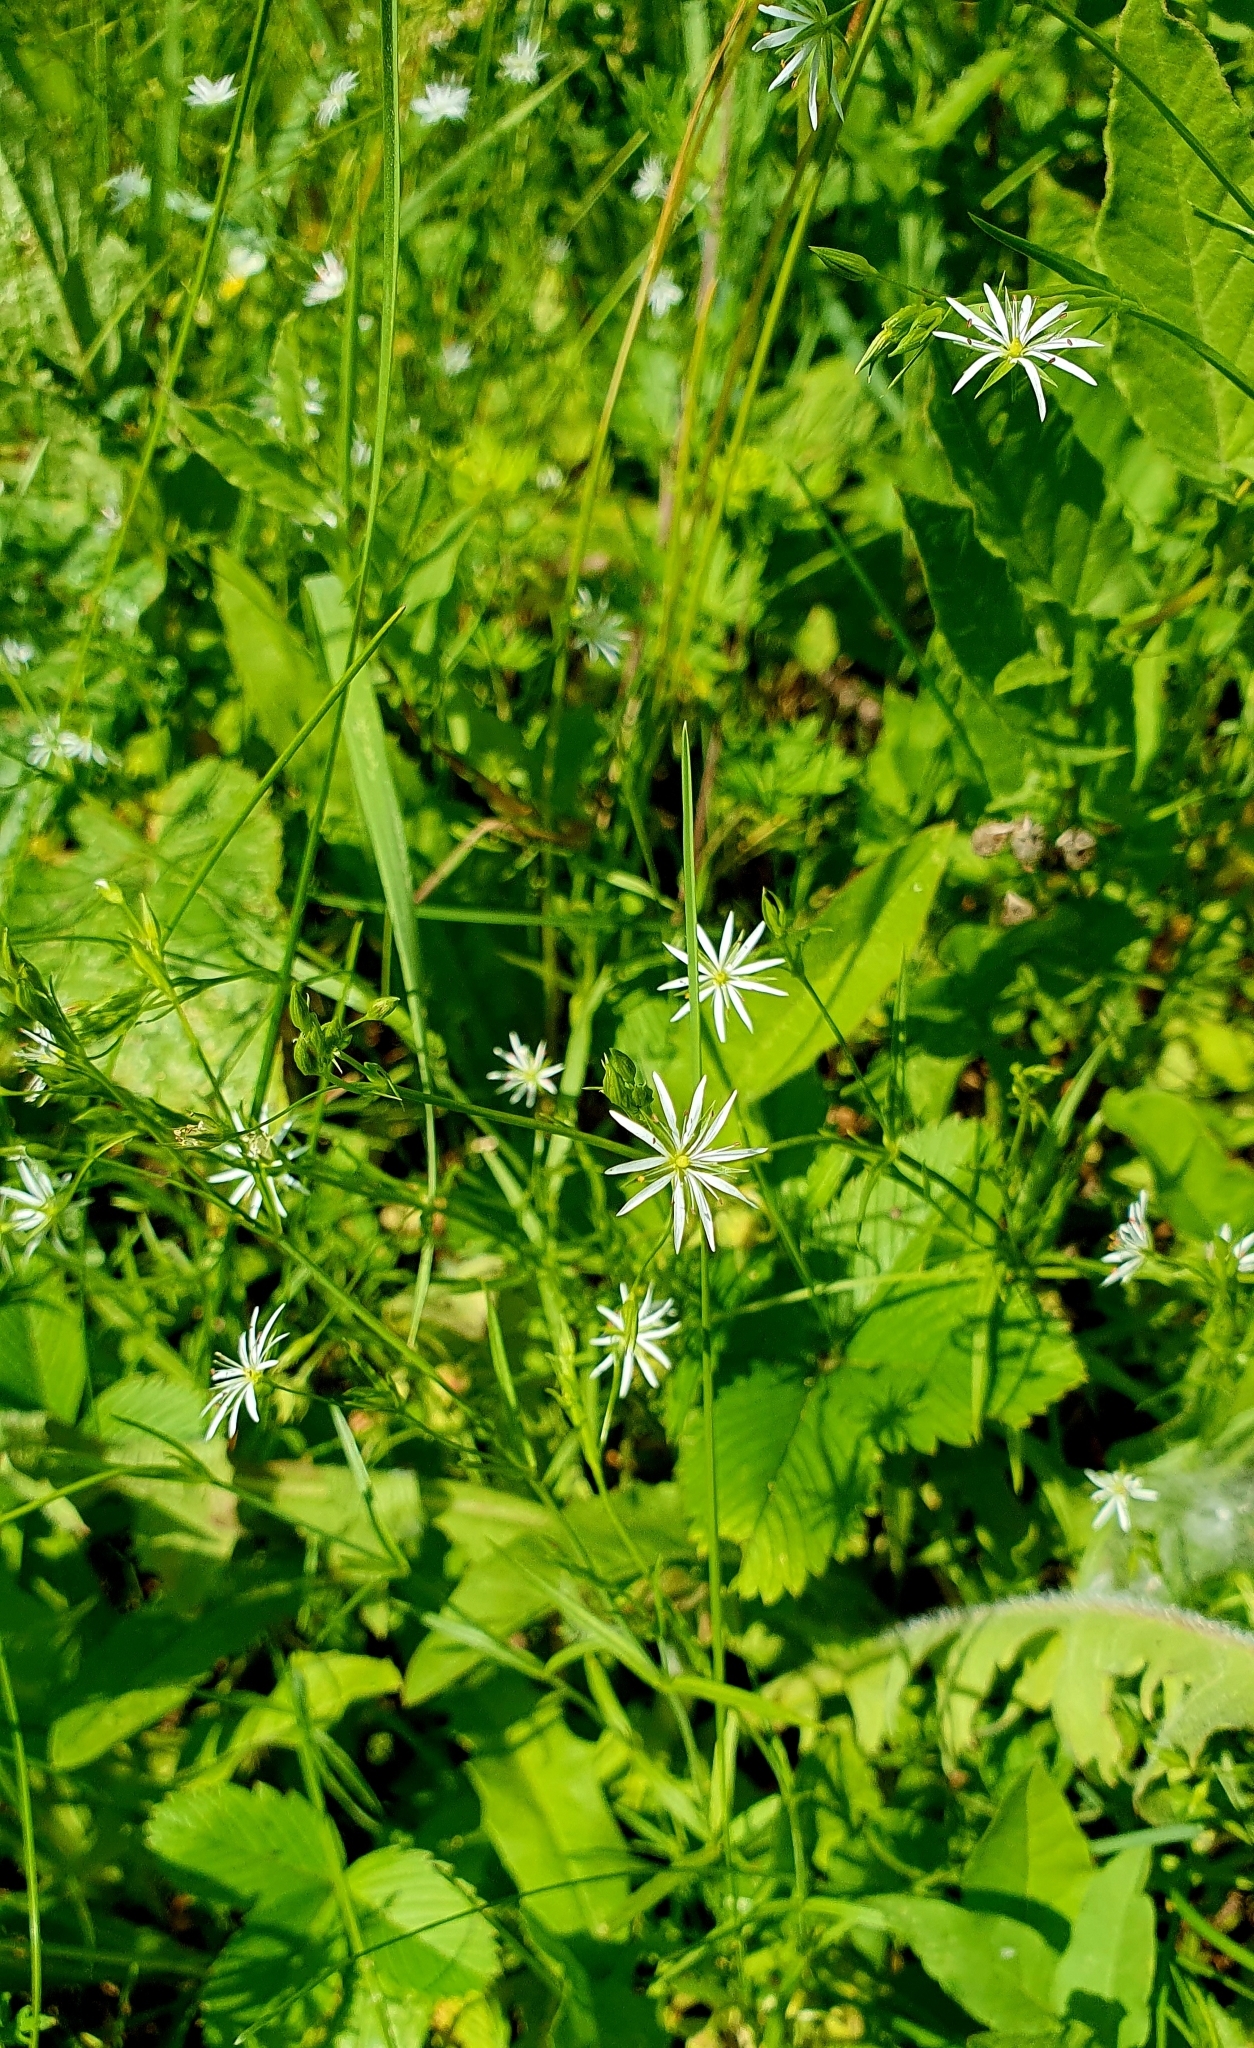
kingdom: Plantae
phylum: Tracheophyta
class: Magnoliopsida
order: Caryophyllales
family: Caryophyllaceae
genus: Stellaria
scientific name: Stellaria graminea
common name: Grass-like starwort
